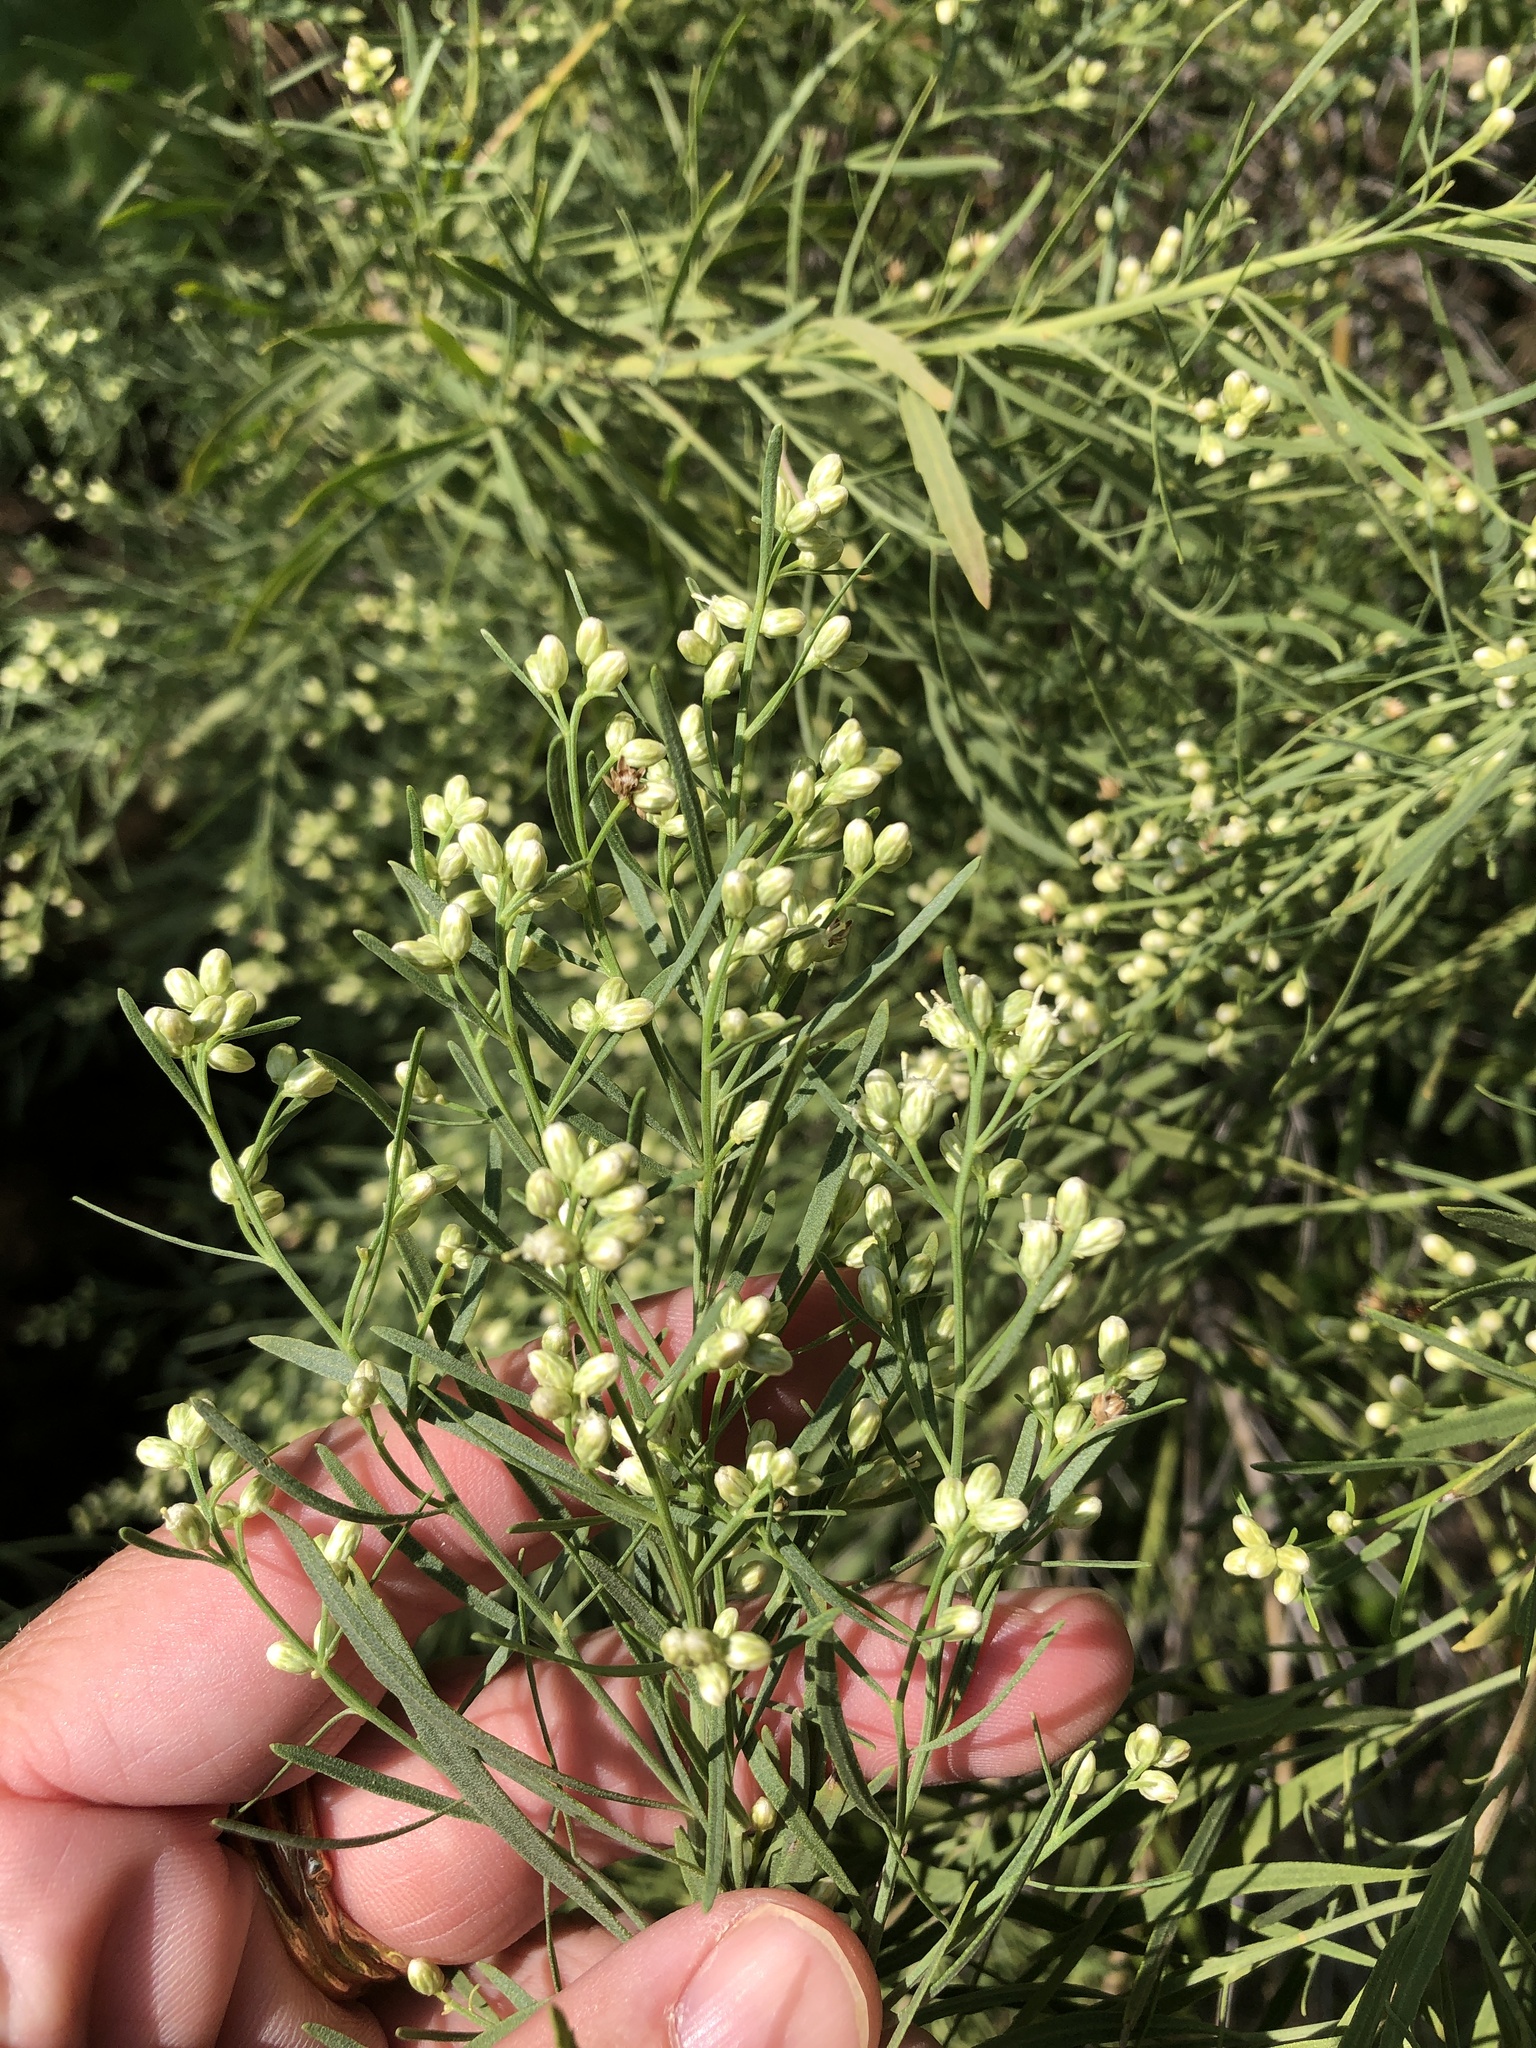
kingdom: Plantae
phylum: Tracheophyta
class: Magnoliopsida
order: Asterales
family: Asteraceae
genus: Baccharis
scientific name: Baccharis neglecta
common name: Roosevelt-weed
